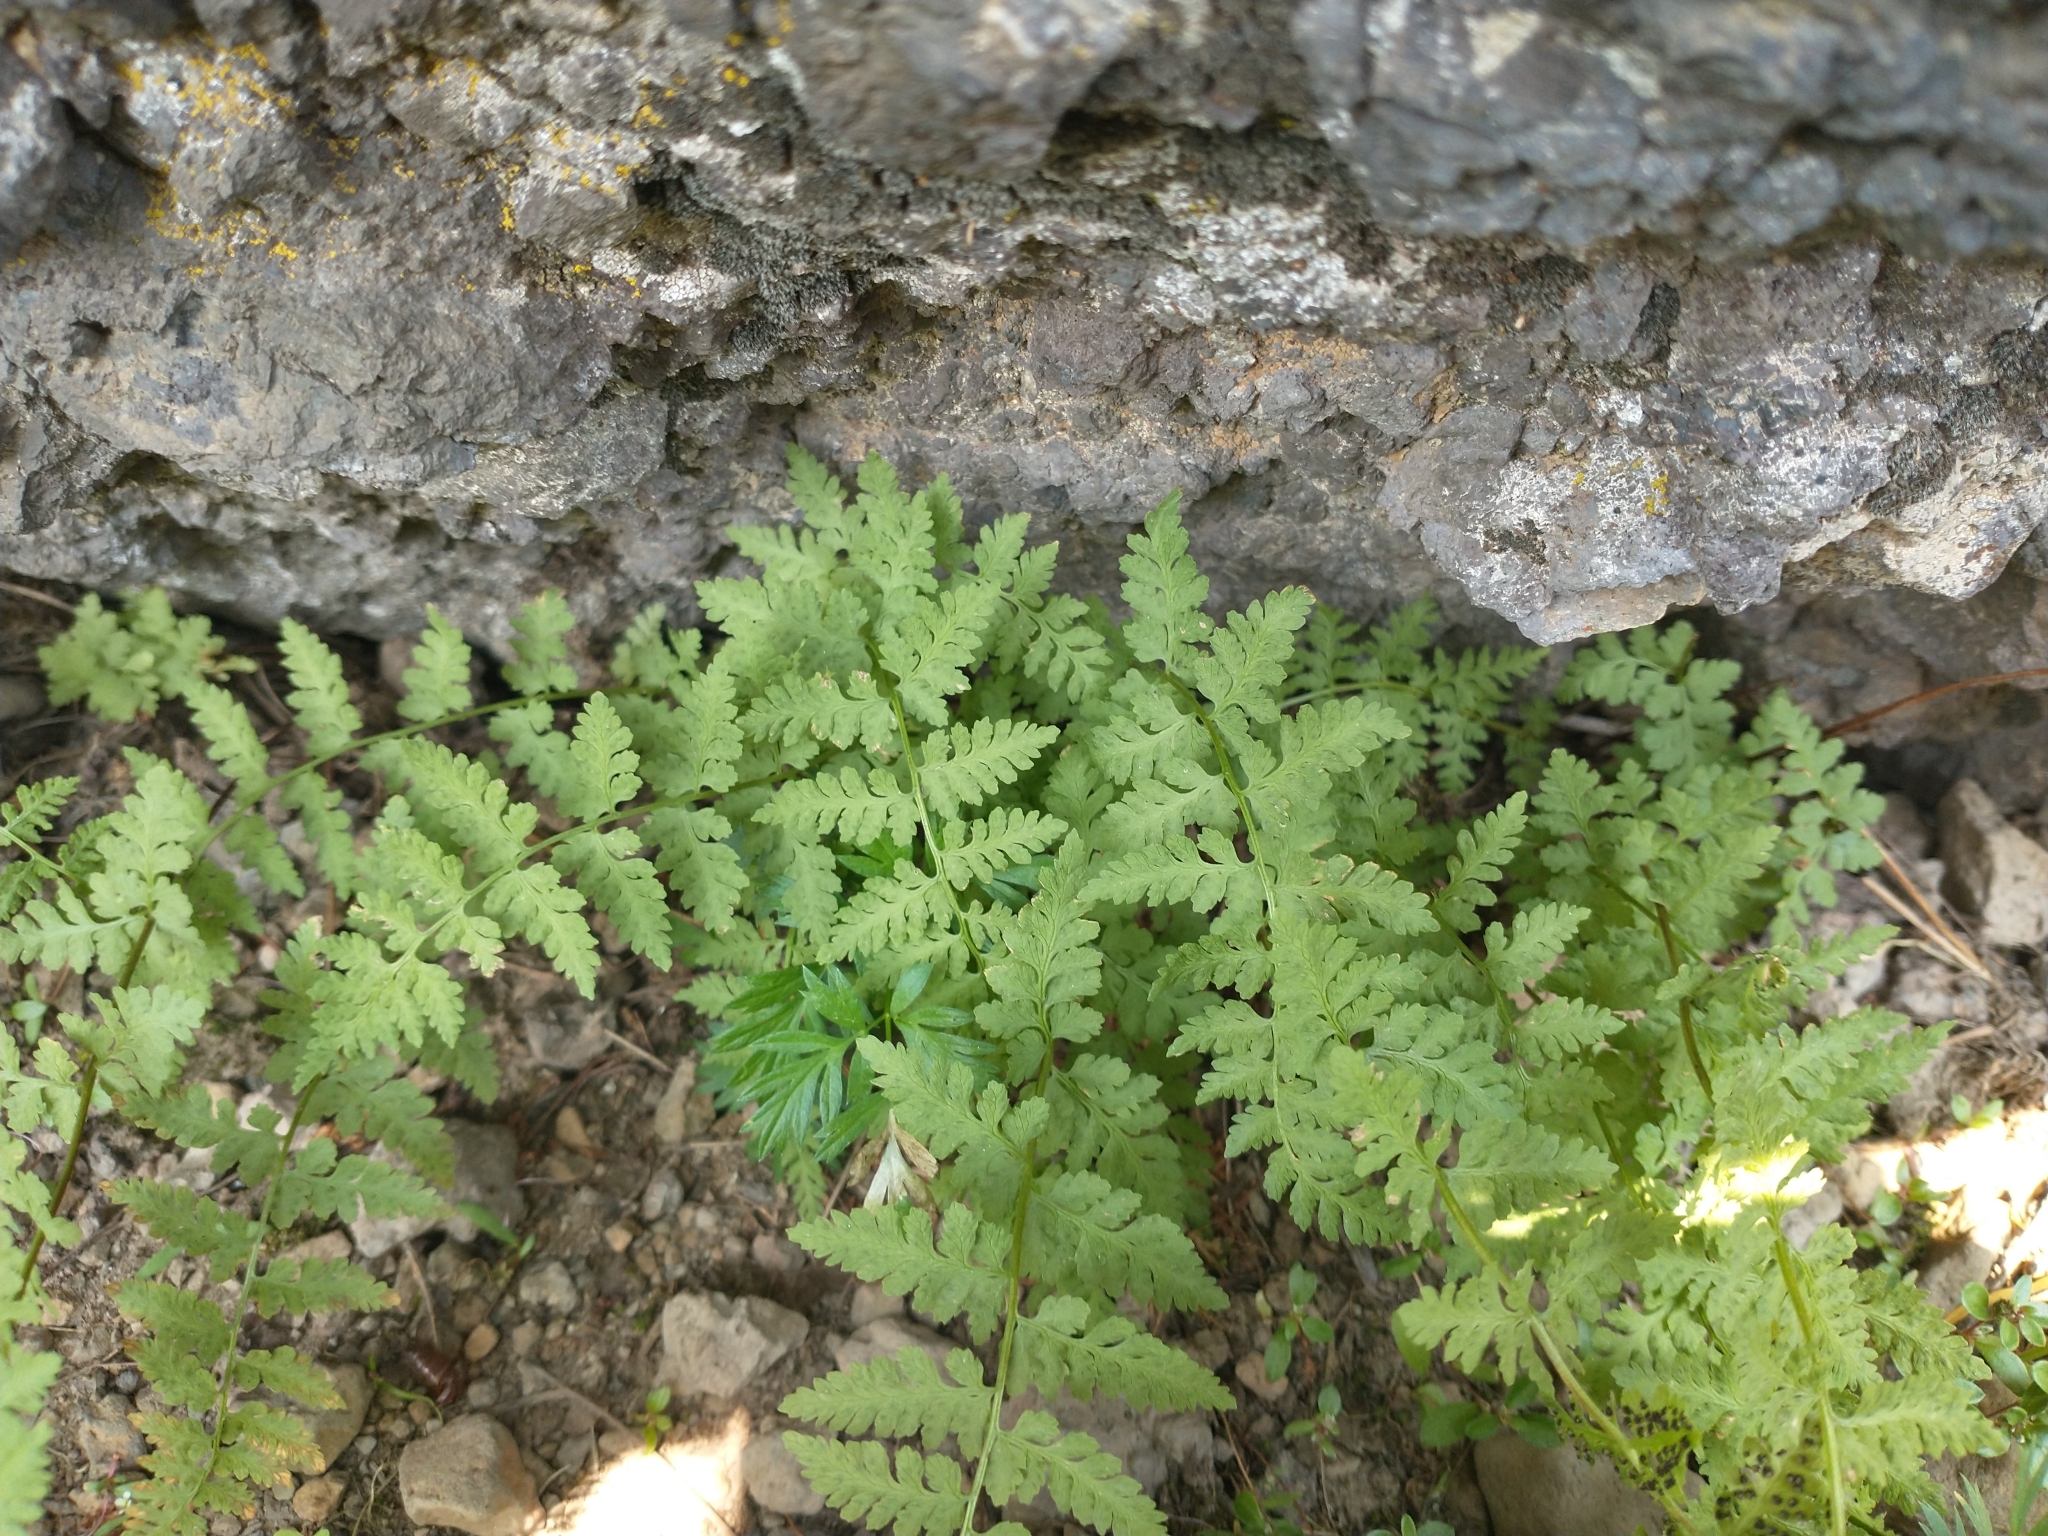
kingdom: Plantae
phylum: Tracheophyta
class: Polypodiopsida
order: Polypodiales
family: Cystopteridaceae
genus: Cystopteris
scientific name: Cystopteris fragilis
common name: Brittle bladder fern
